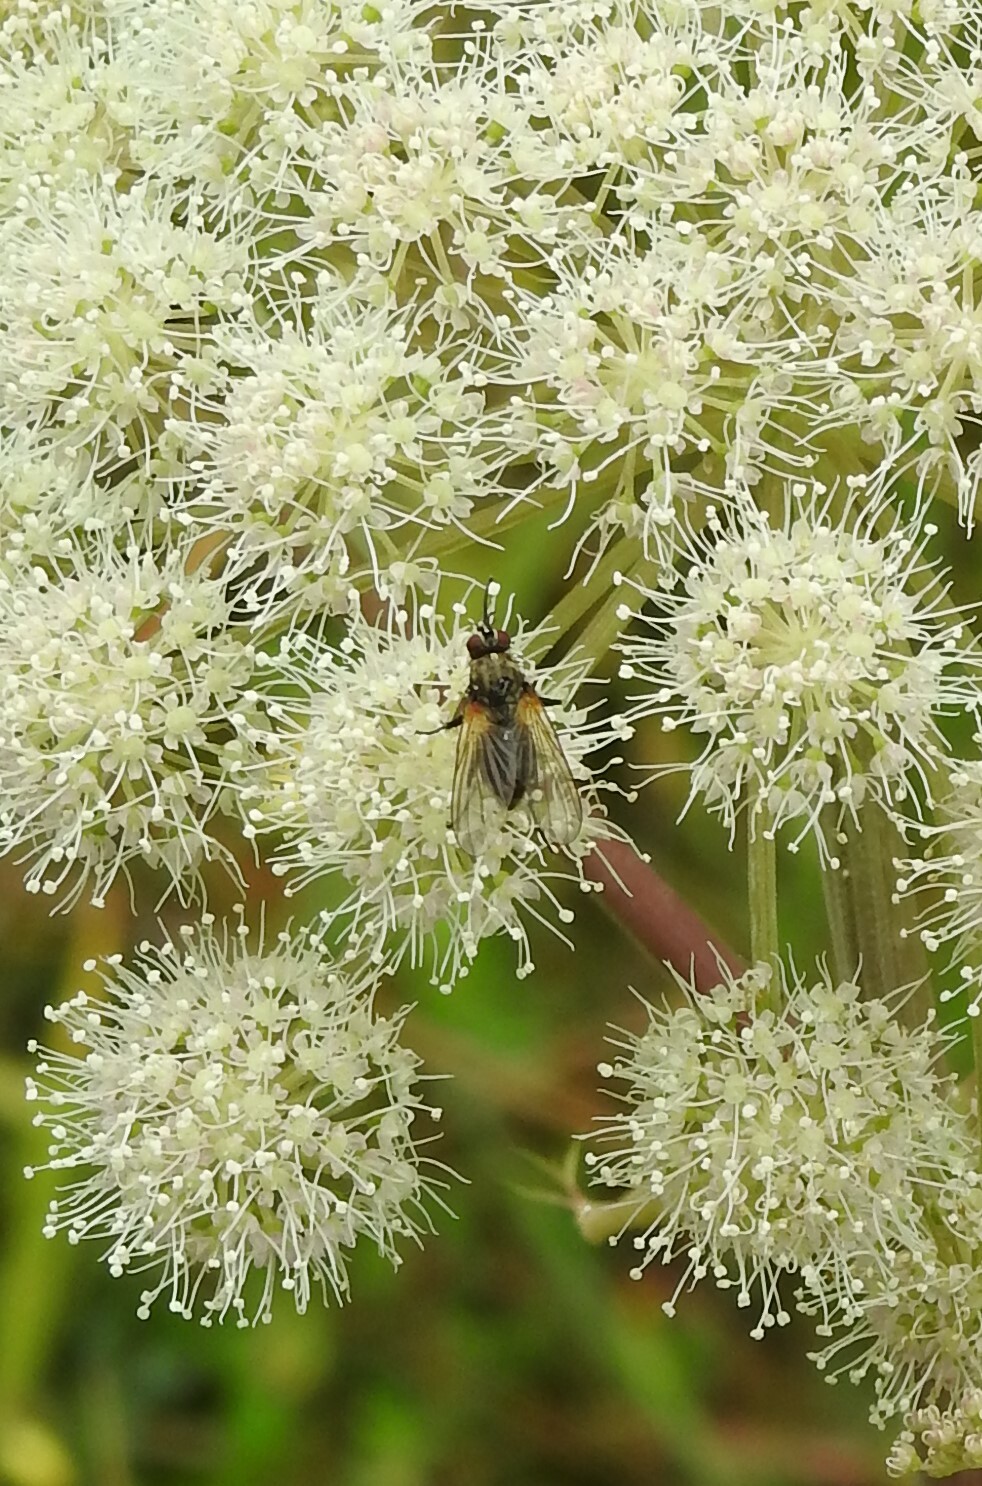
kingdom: Animalia
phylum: Arthropoda
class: Insecta
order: Diptera
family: Muscidae
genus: Muscina
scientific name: Muscina stabulans
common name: False stable fly
